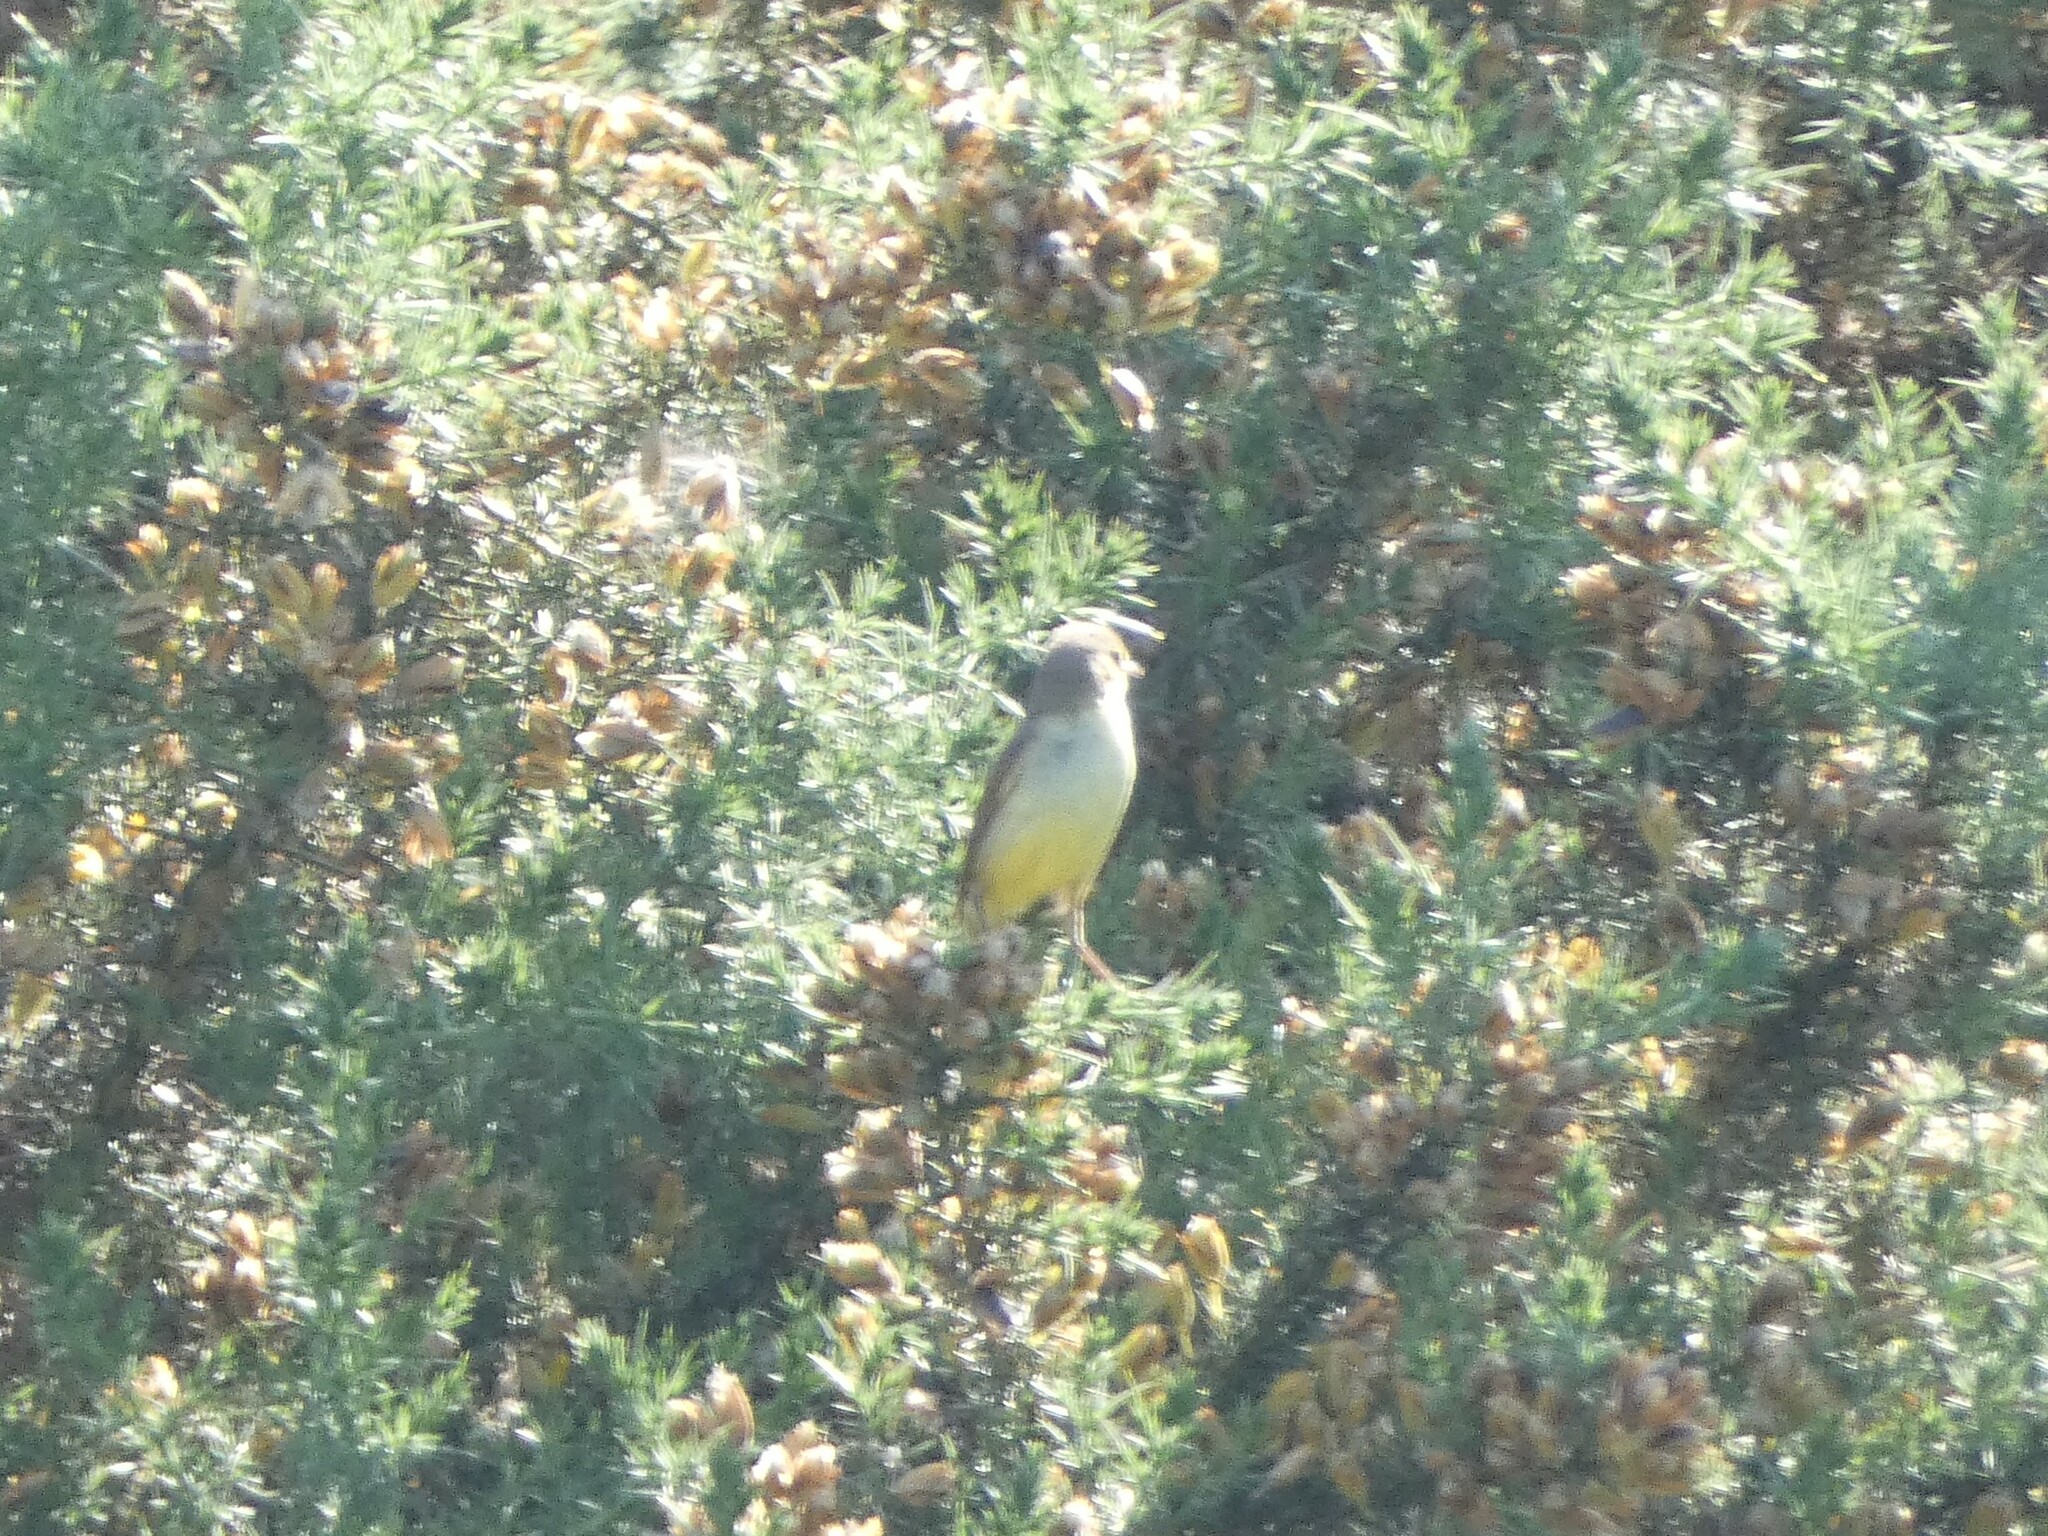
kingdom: Animalia
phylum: Chordata
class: Aves
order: Passeriformes
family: Motacillidae
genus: Motacilla
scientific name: Motacilla cinerea
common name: Grey wagtail
